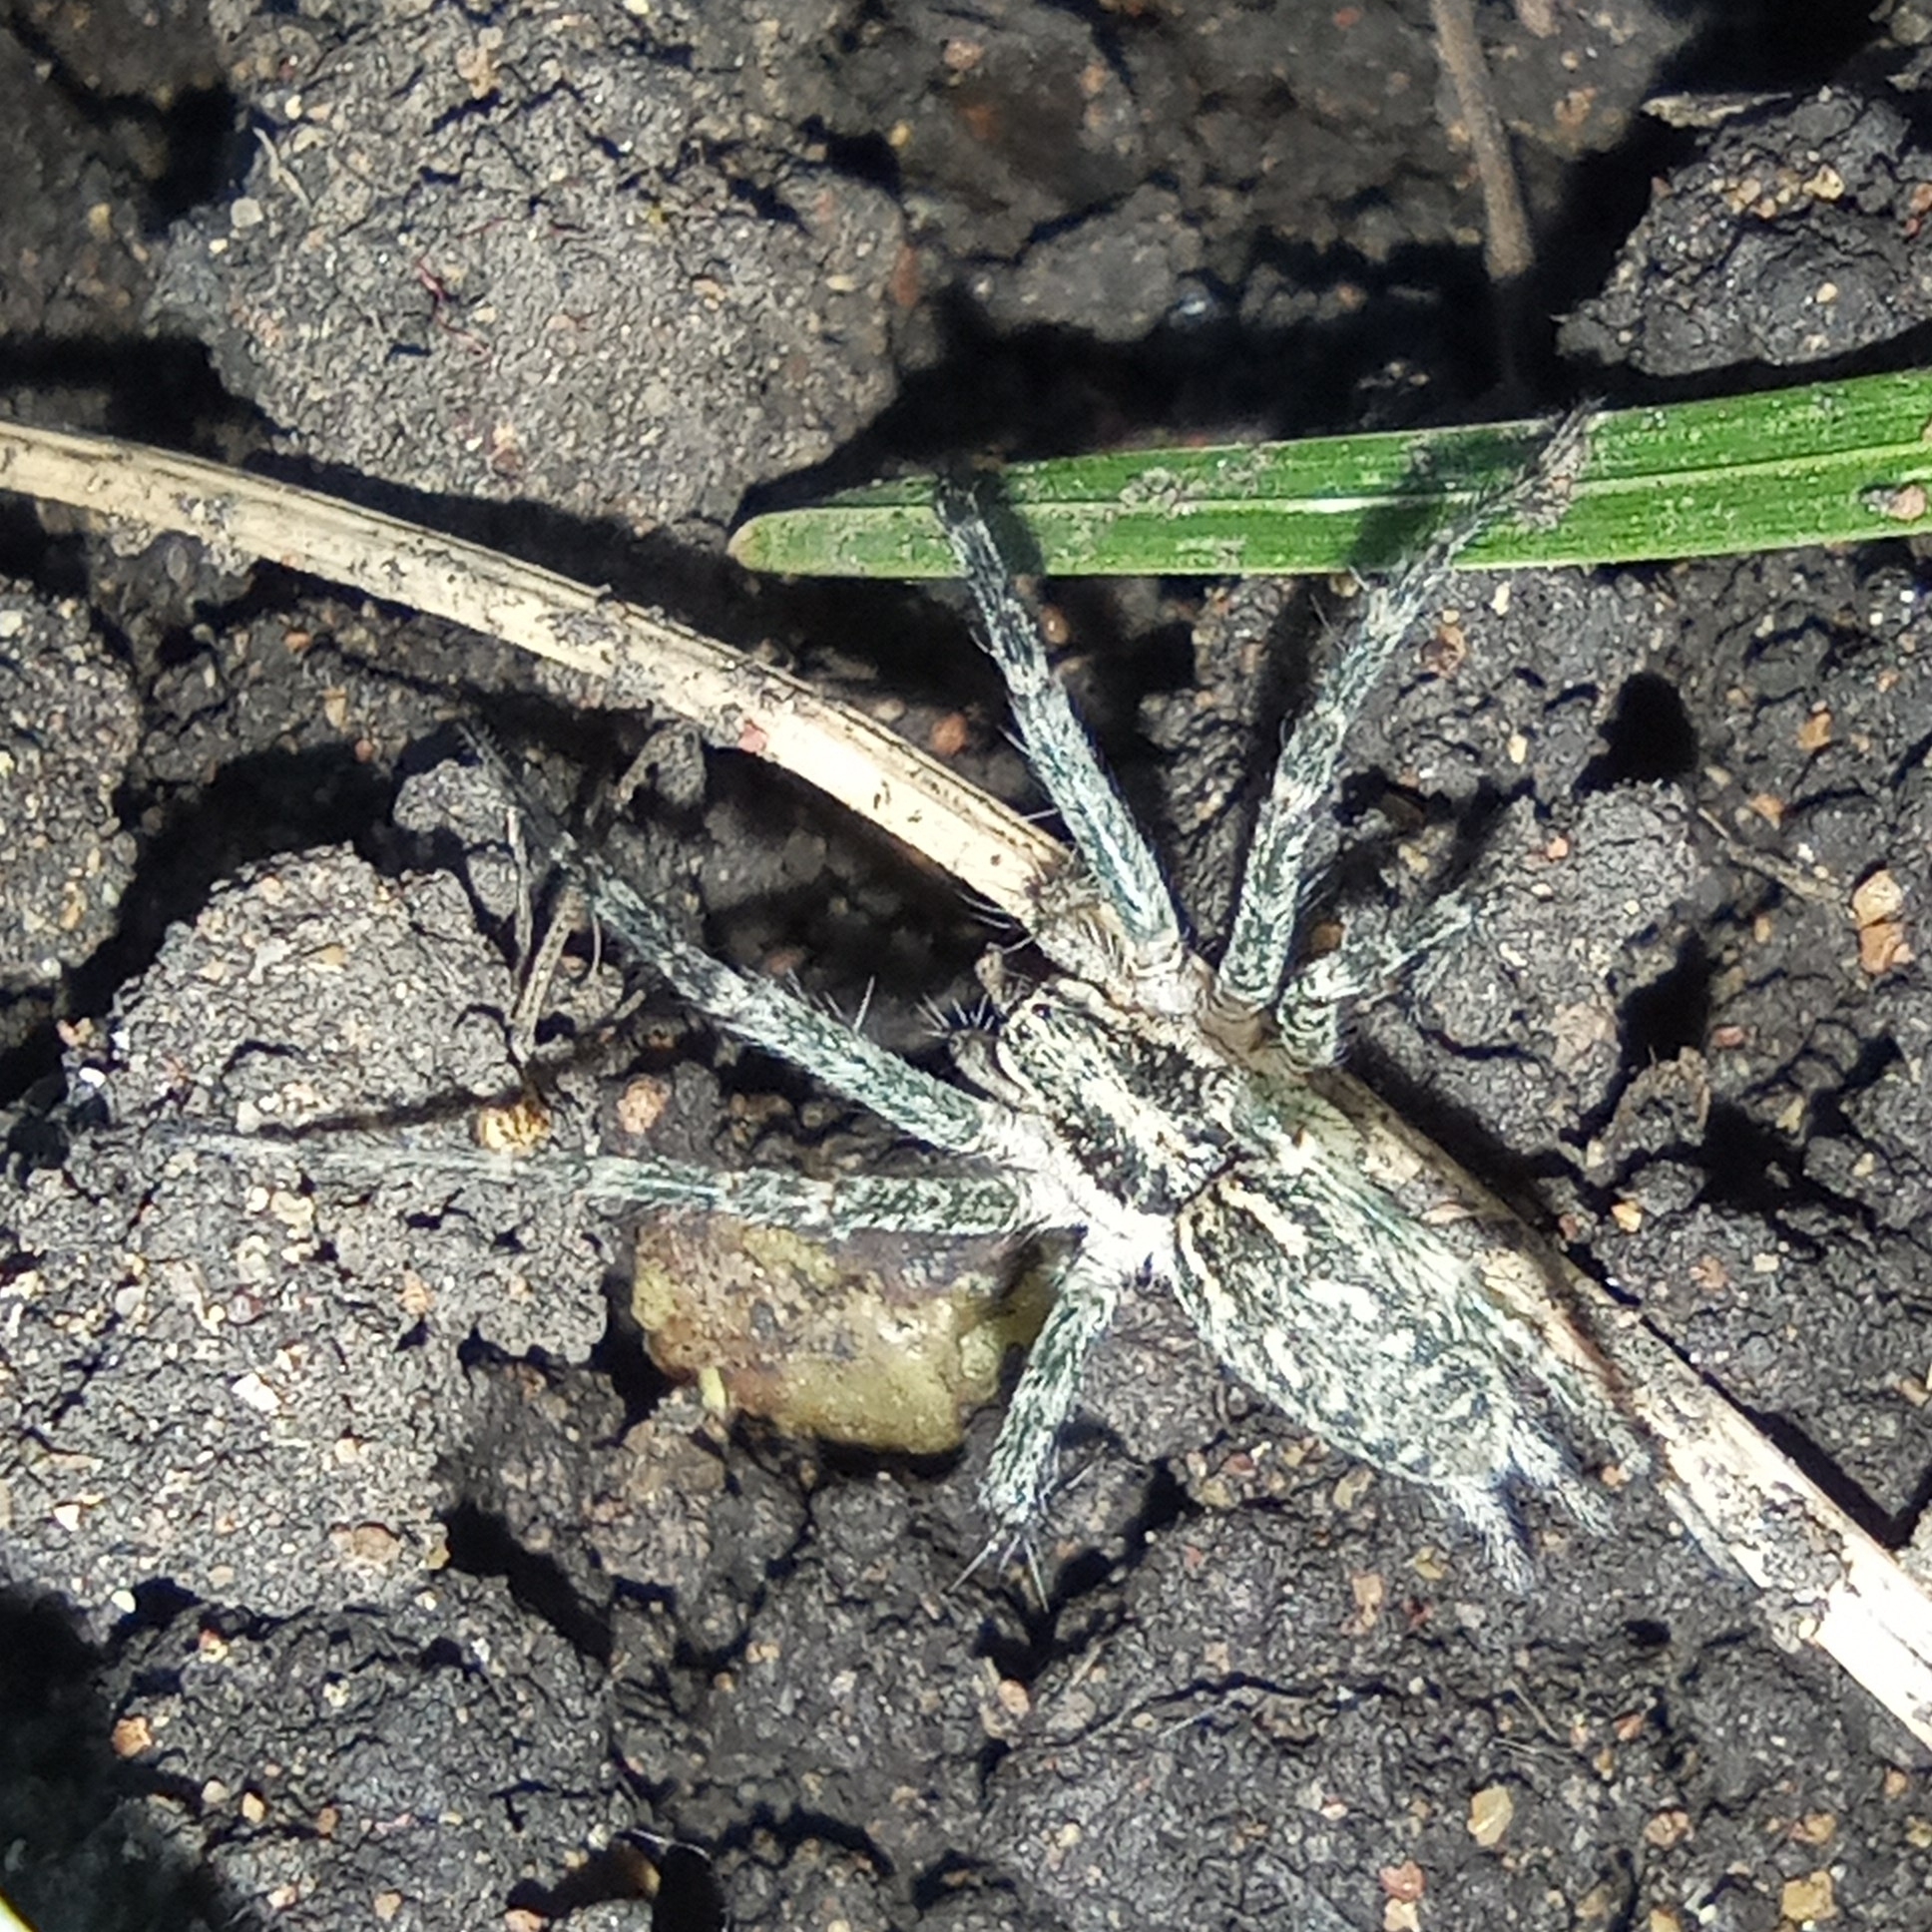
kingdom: Animalia
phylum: Arthropoda
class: Arachnida
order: Araneae
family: Agelenidae
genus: Allagelena
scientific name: Allagelena gracilens
